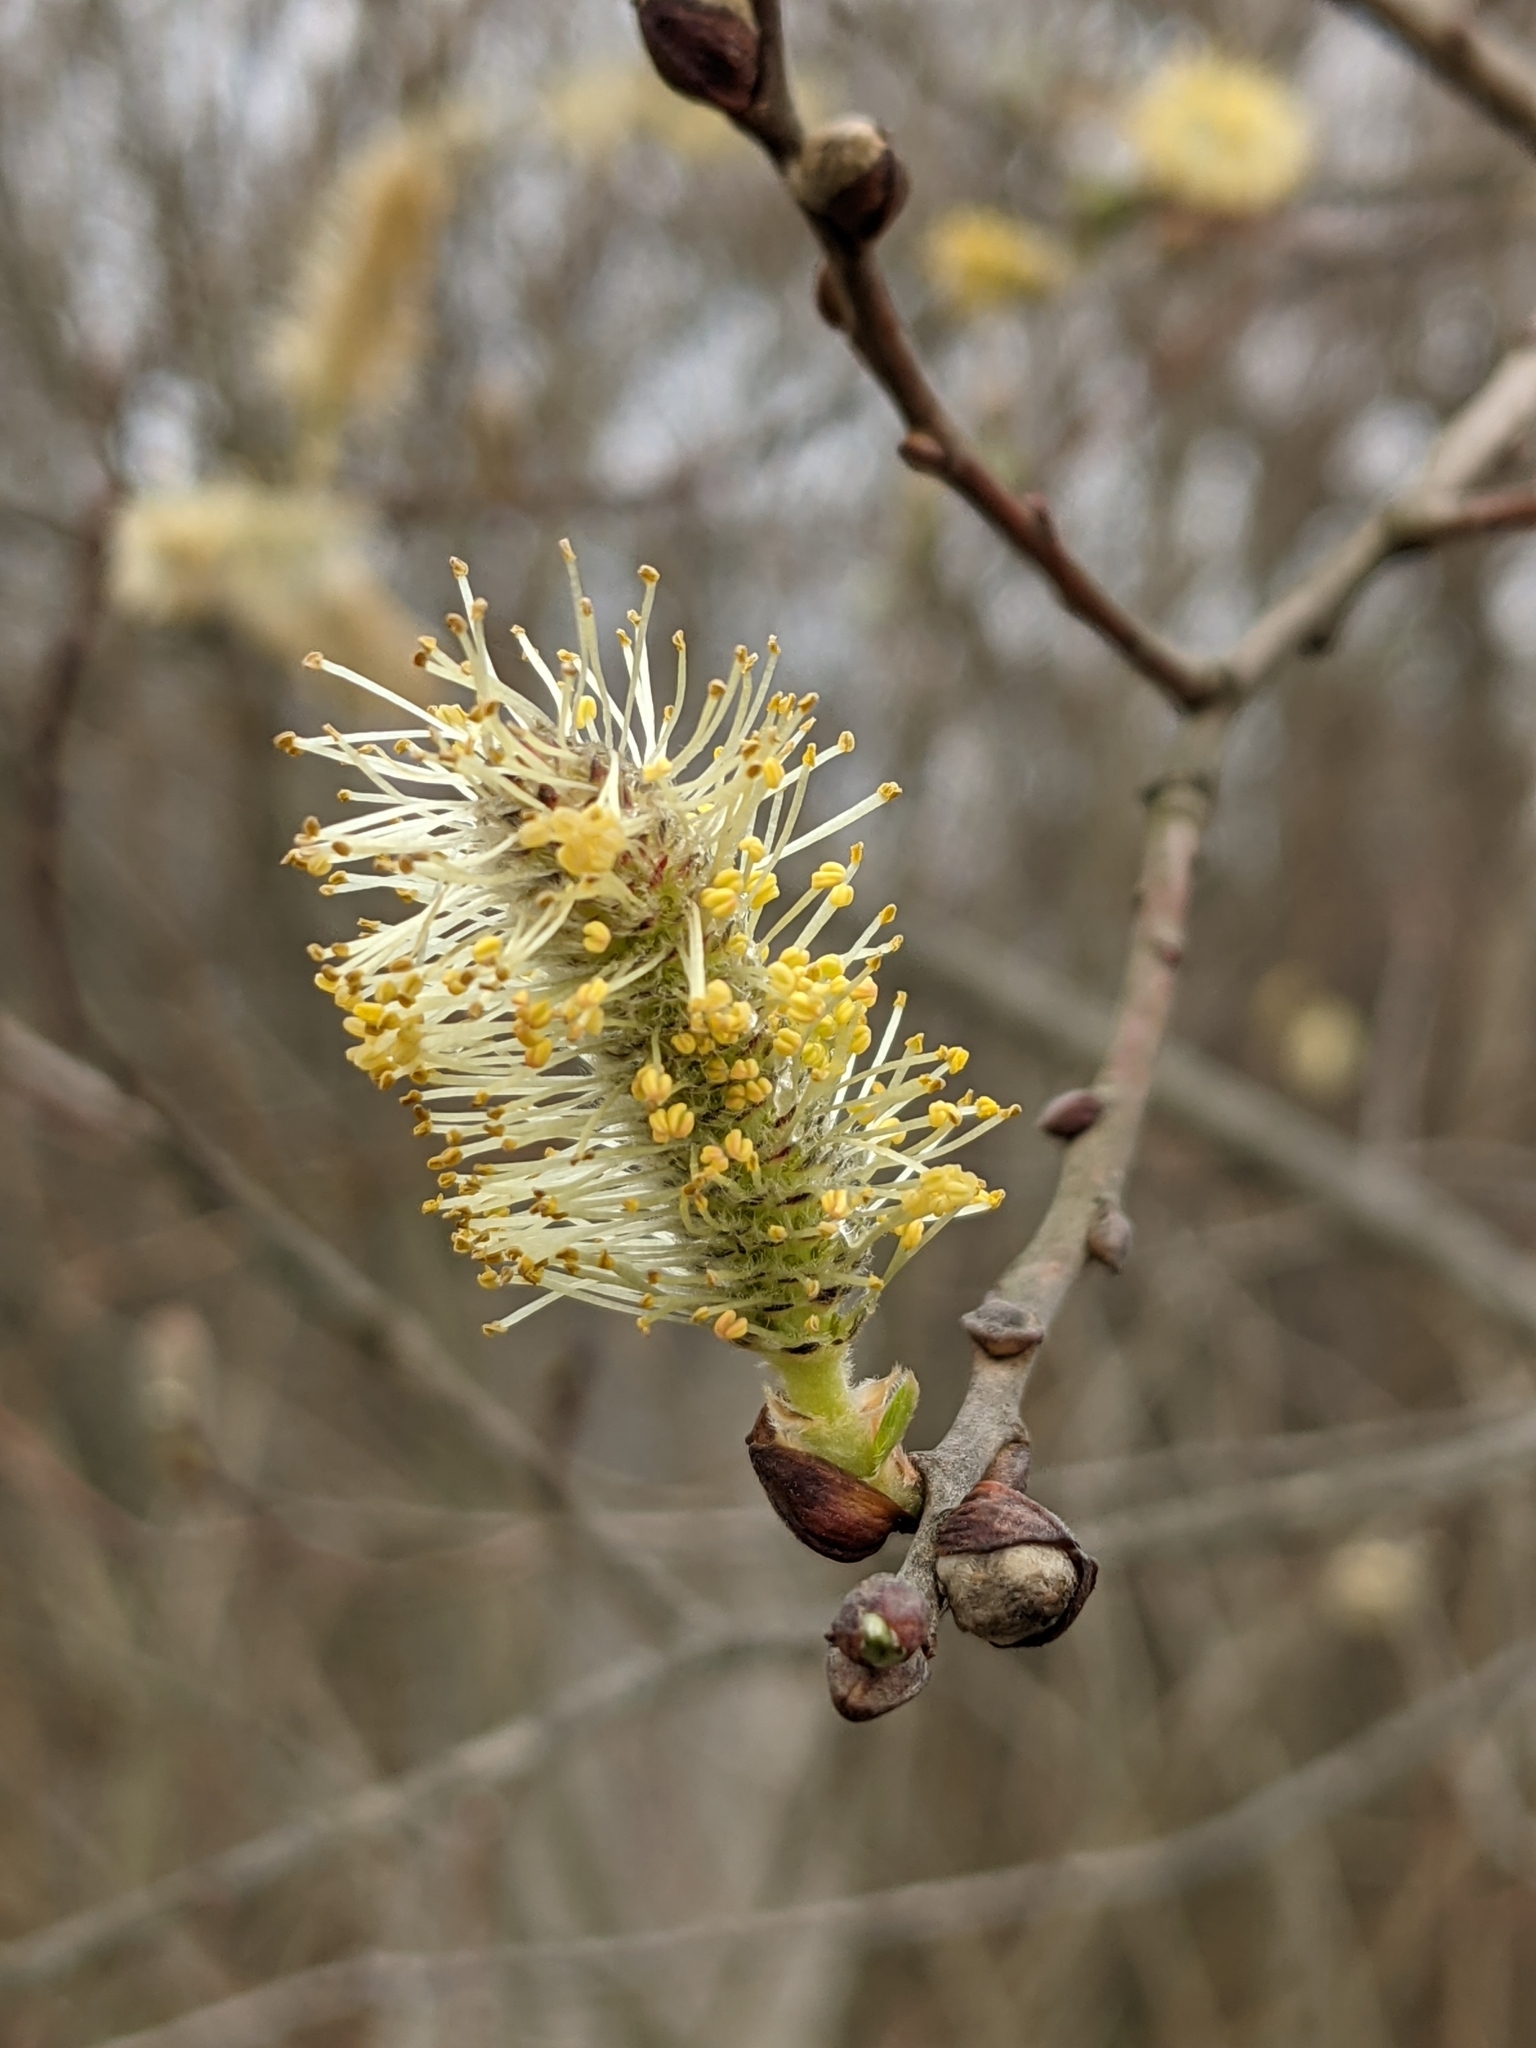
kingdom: Plantae
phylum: Tracheophyta
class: Magnoliopsida
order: Malpighiales
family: Salicaceae
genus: Salix
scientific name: Salix caprea
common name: Goat willow
